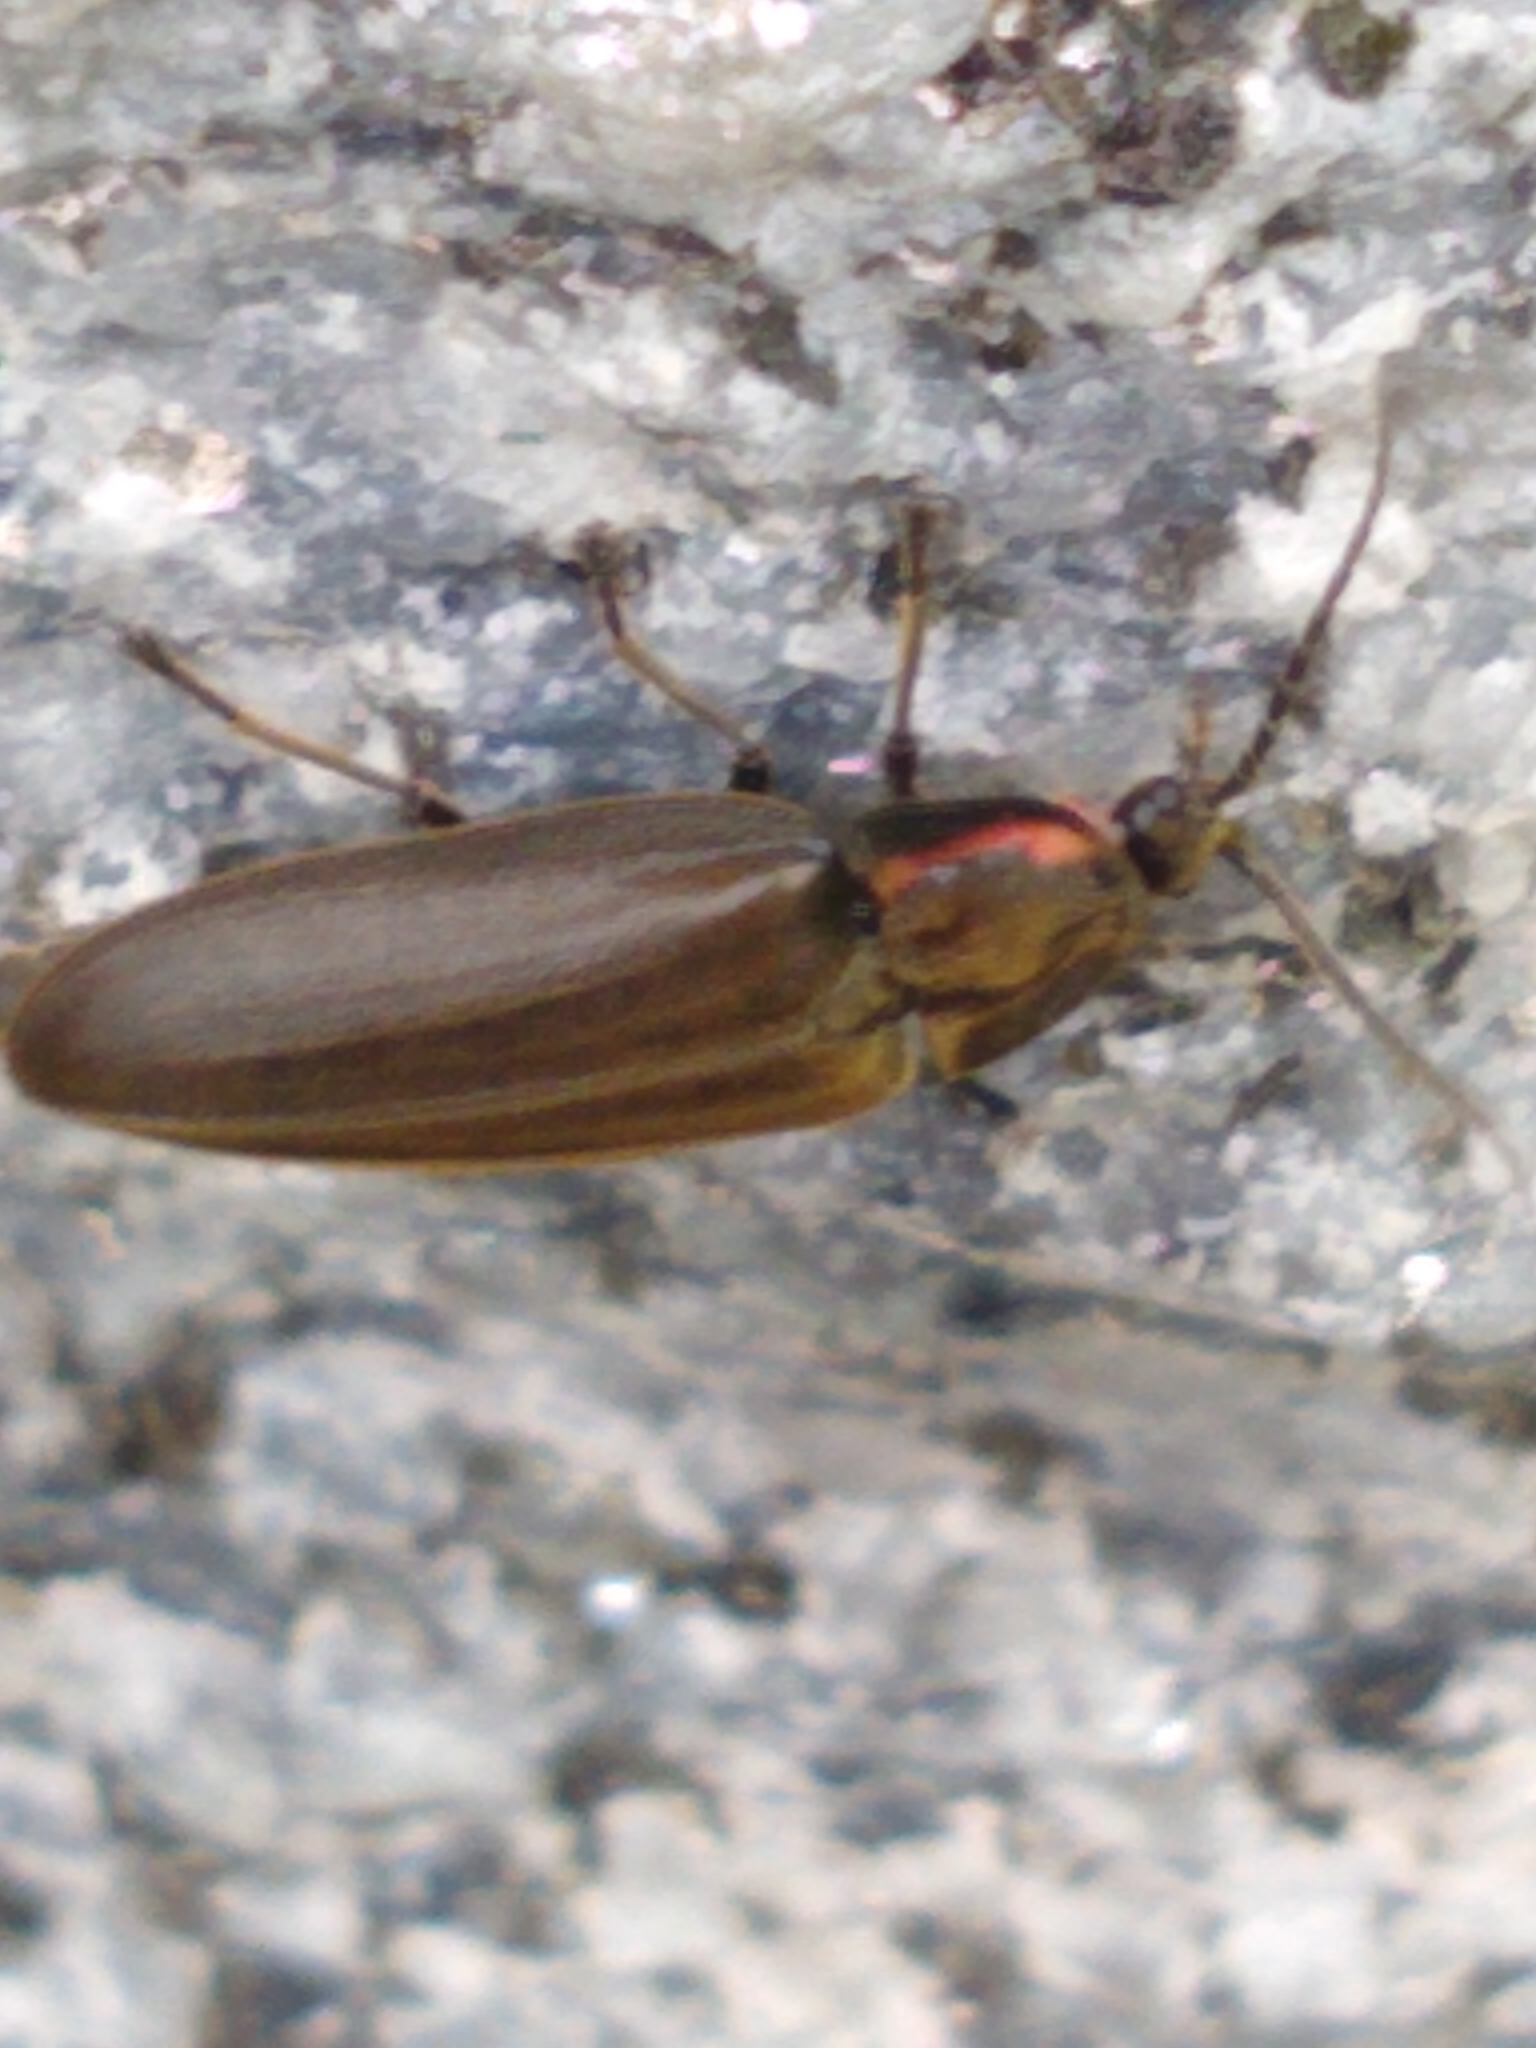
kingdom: Animalia
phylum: Arthropoda
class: Insecta
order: Coleoptera
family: Lampyridae
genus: Photinus
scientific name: Photinus corrusca
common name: Winter firefly
